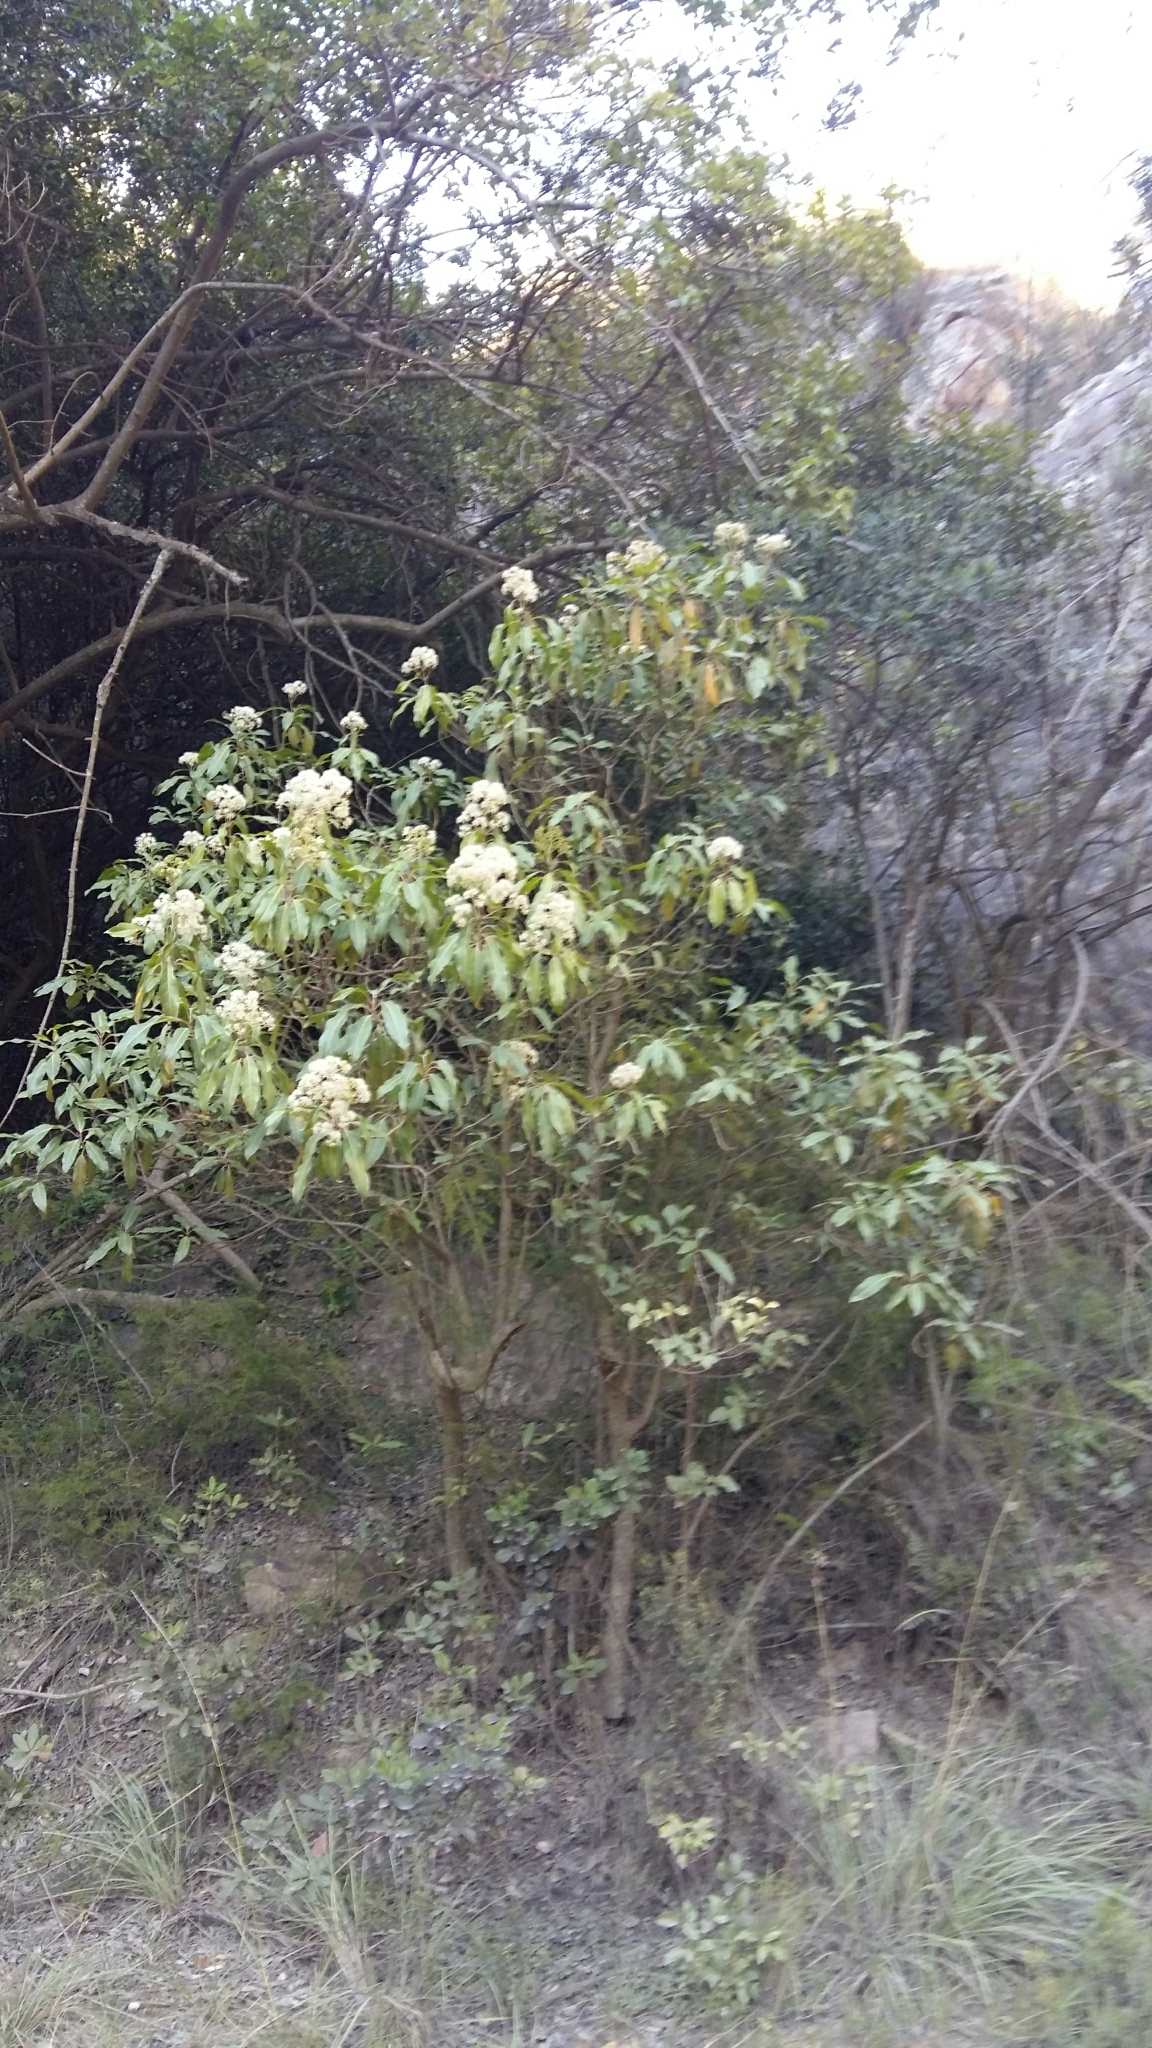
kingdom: Plantae
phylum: Tracheophyta
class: Magnoliopsida
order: Lamiales
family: Stilbaceae
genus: Nuxia
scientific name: Nuxia floribunda
